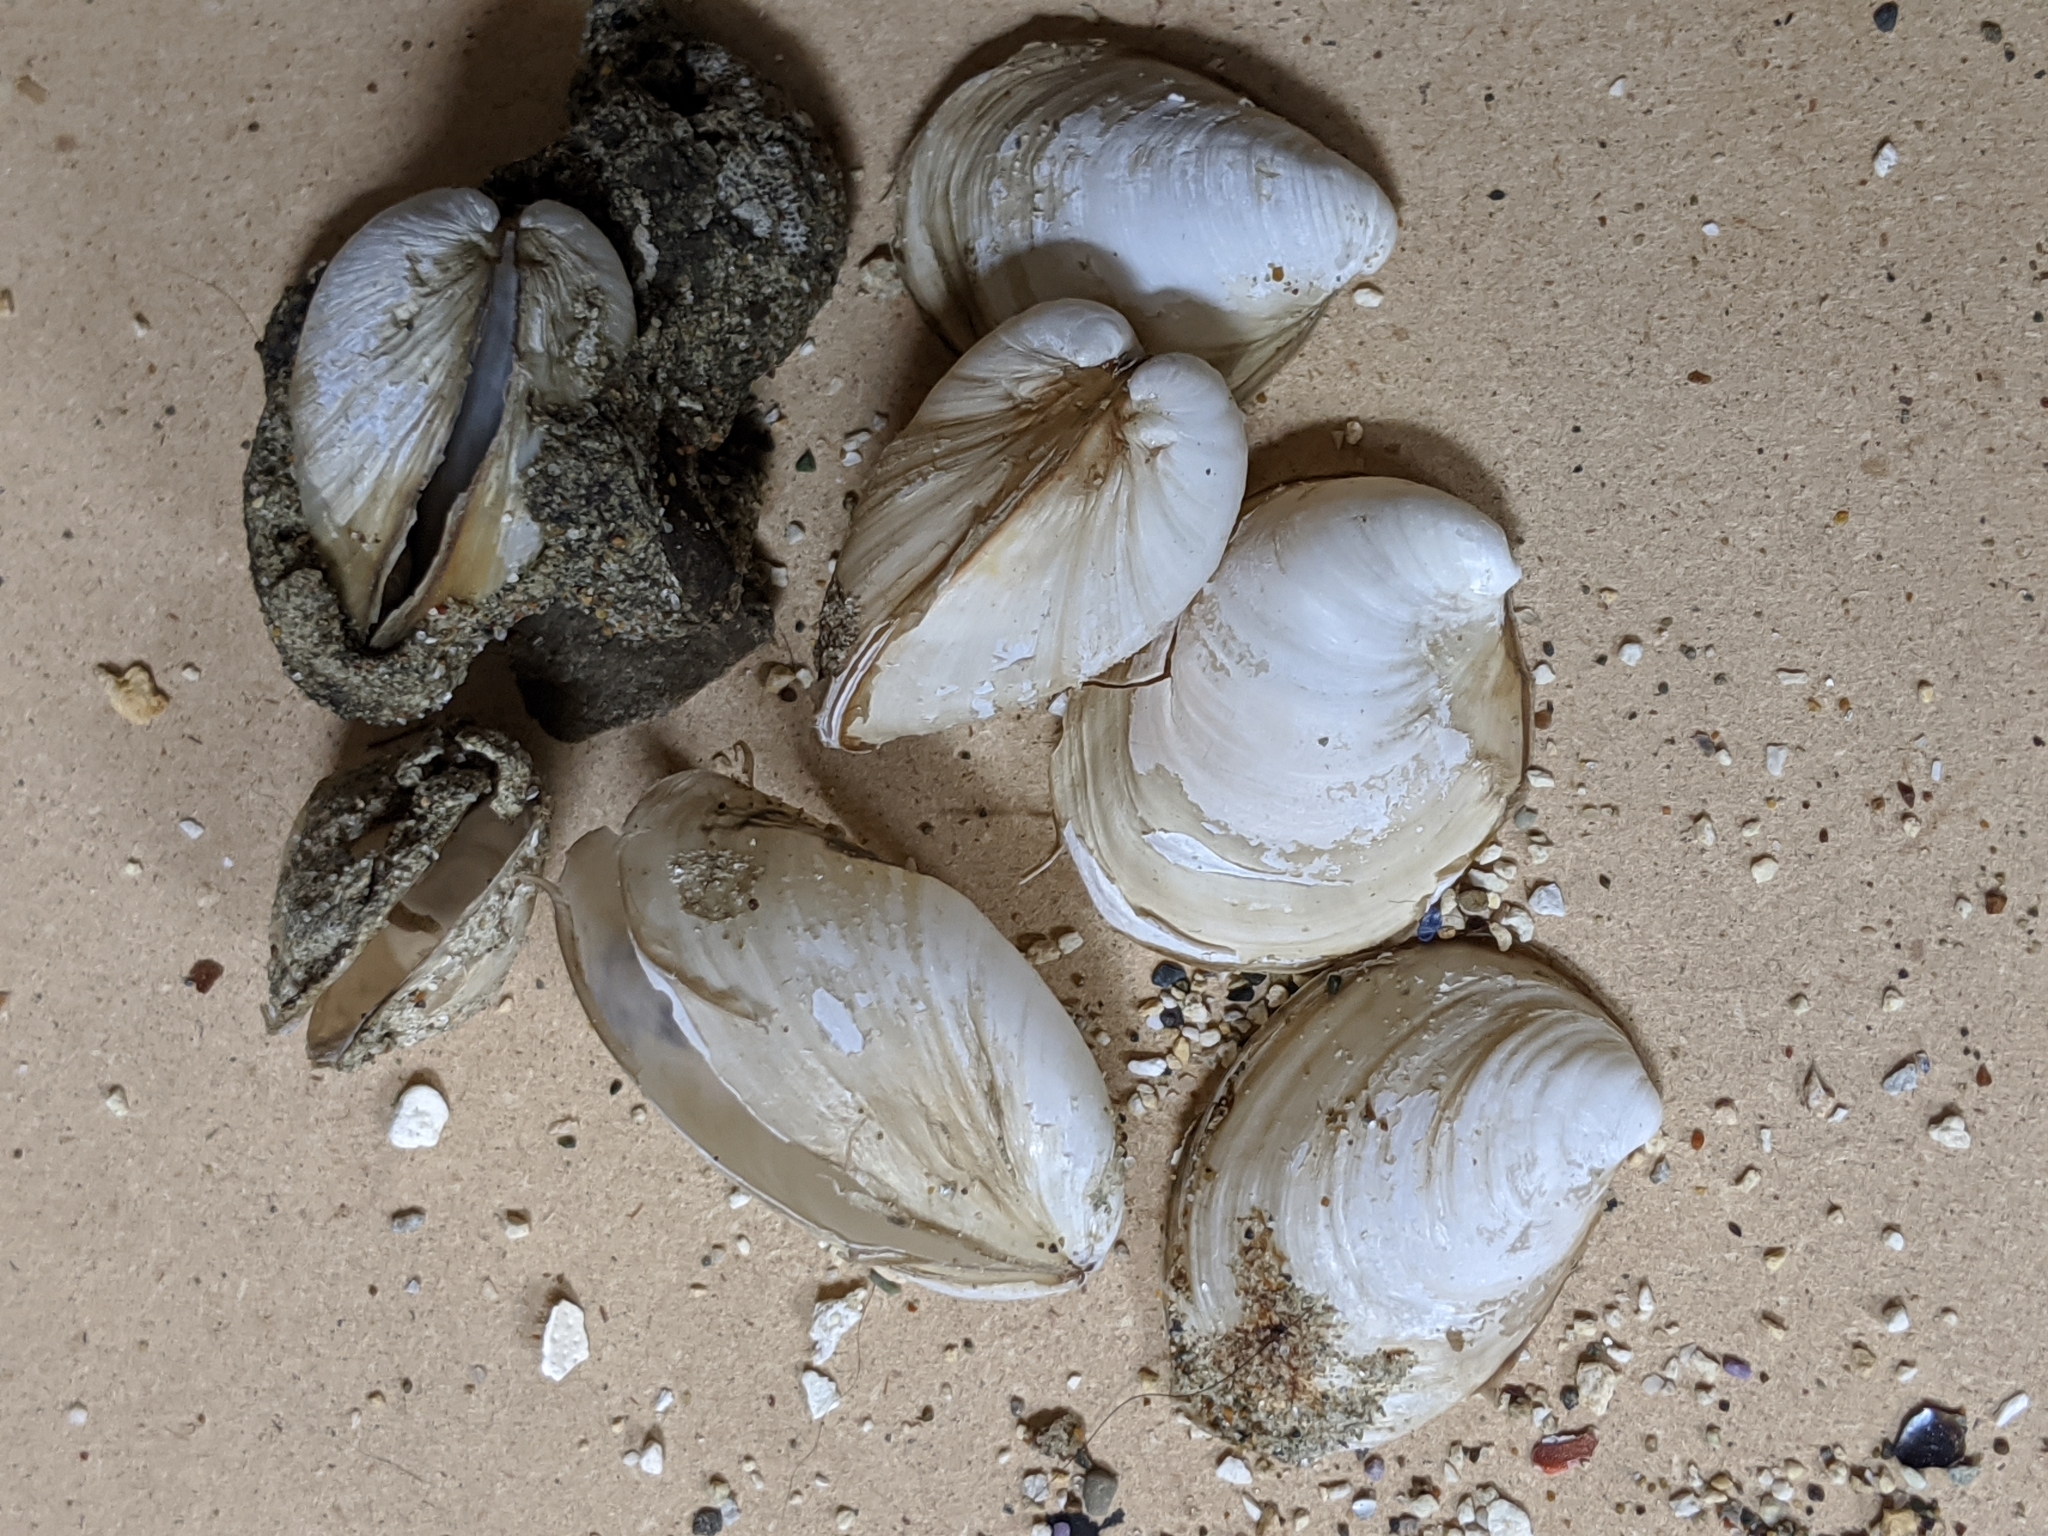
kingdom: Animalia
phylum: Mollusca
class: Bivalvia
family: Lyonsiidae
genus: Mytilimeria
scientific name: Mytilimeria nuttalli
